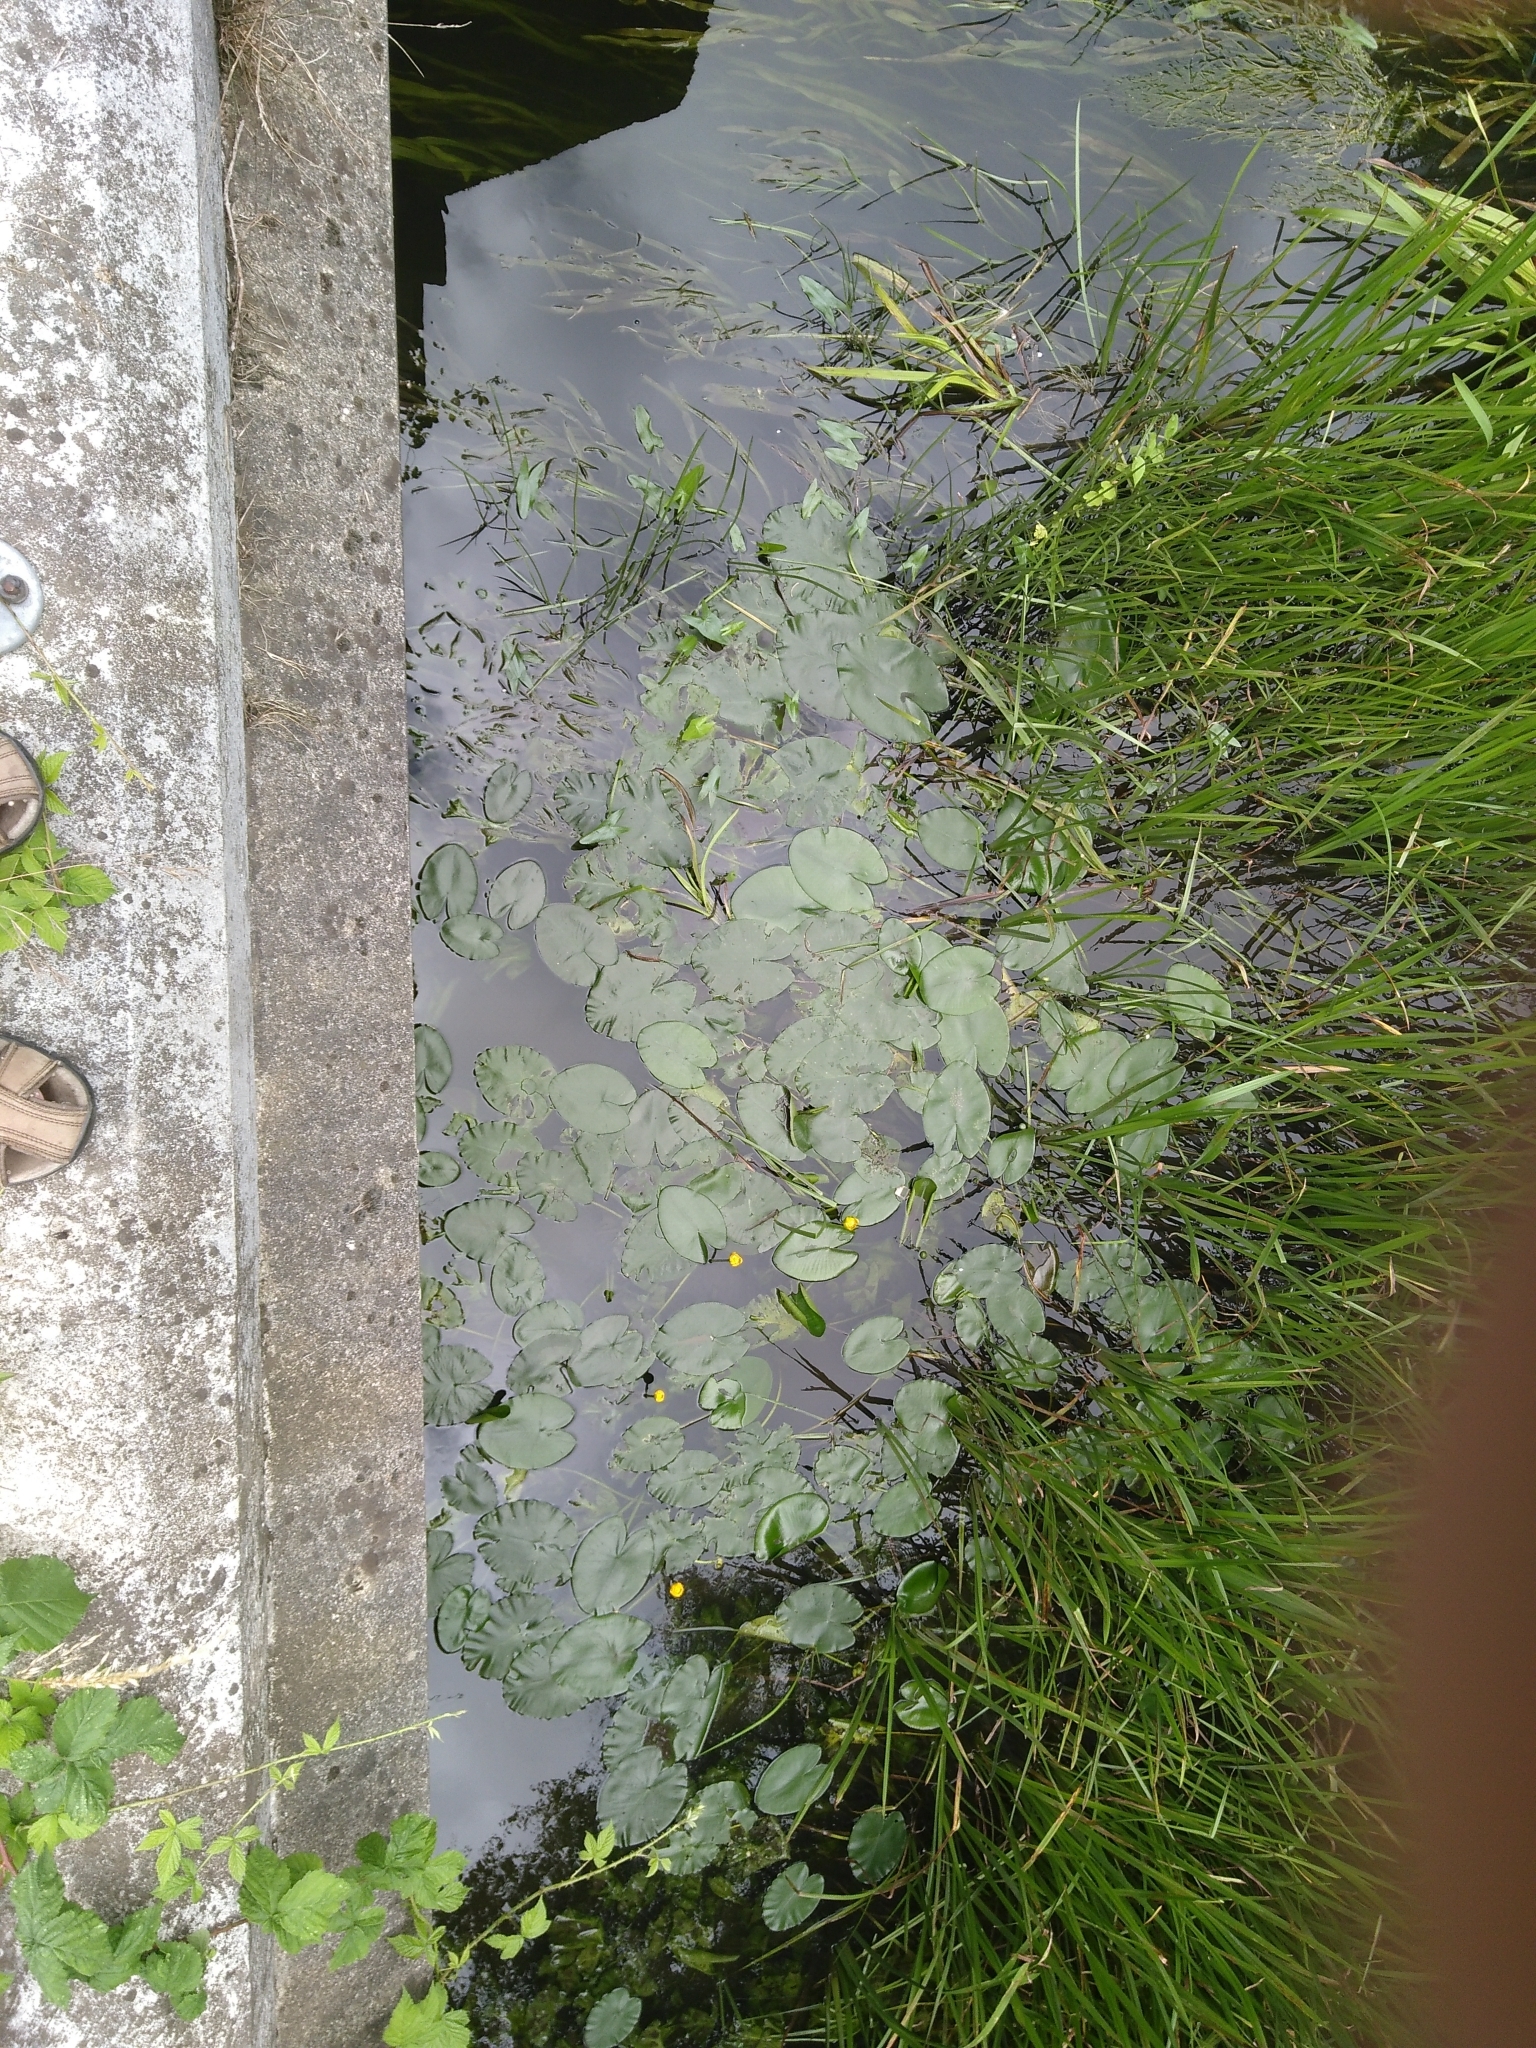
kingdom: Plantae
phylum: Tracheophyta
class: Magnoliopsida
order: Nymphaeales
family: Nymphaeaceae
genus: Nuphar
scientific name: Nuphar lutea
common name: Yellow water-lily
